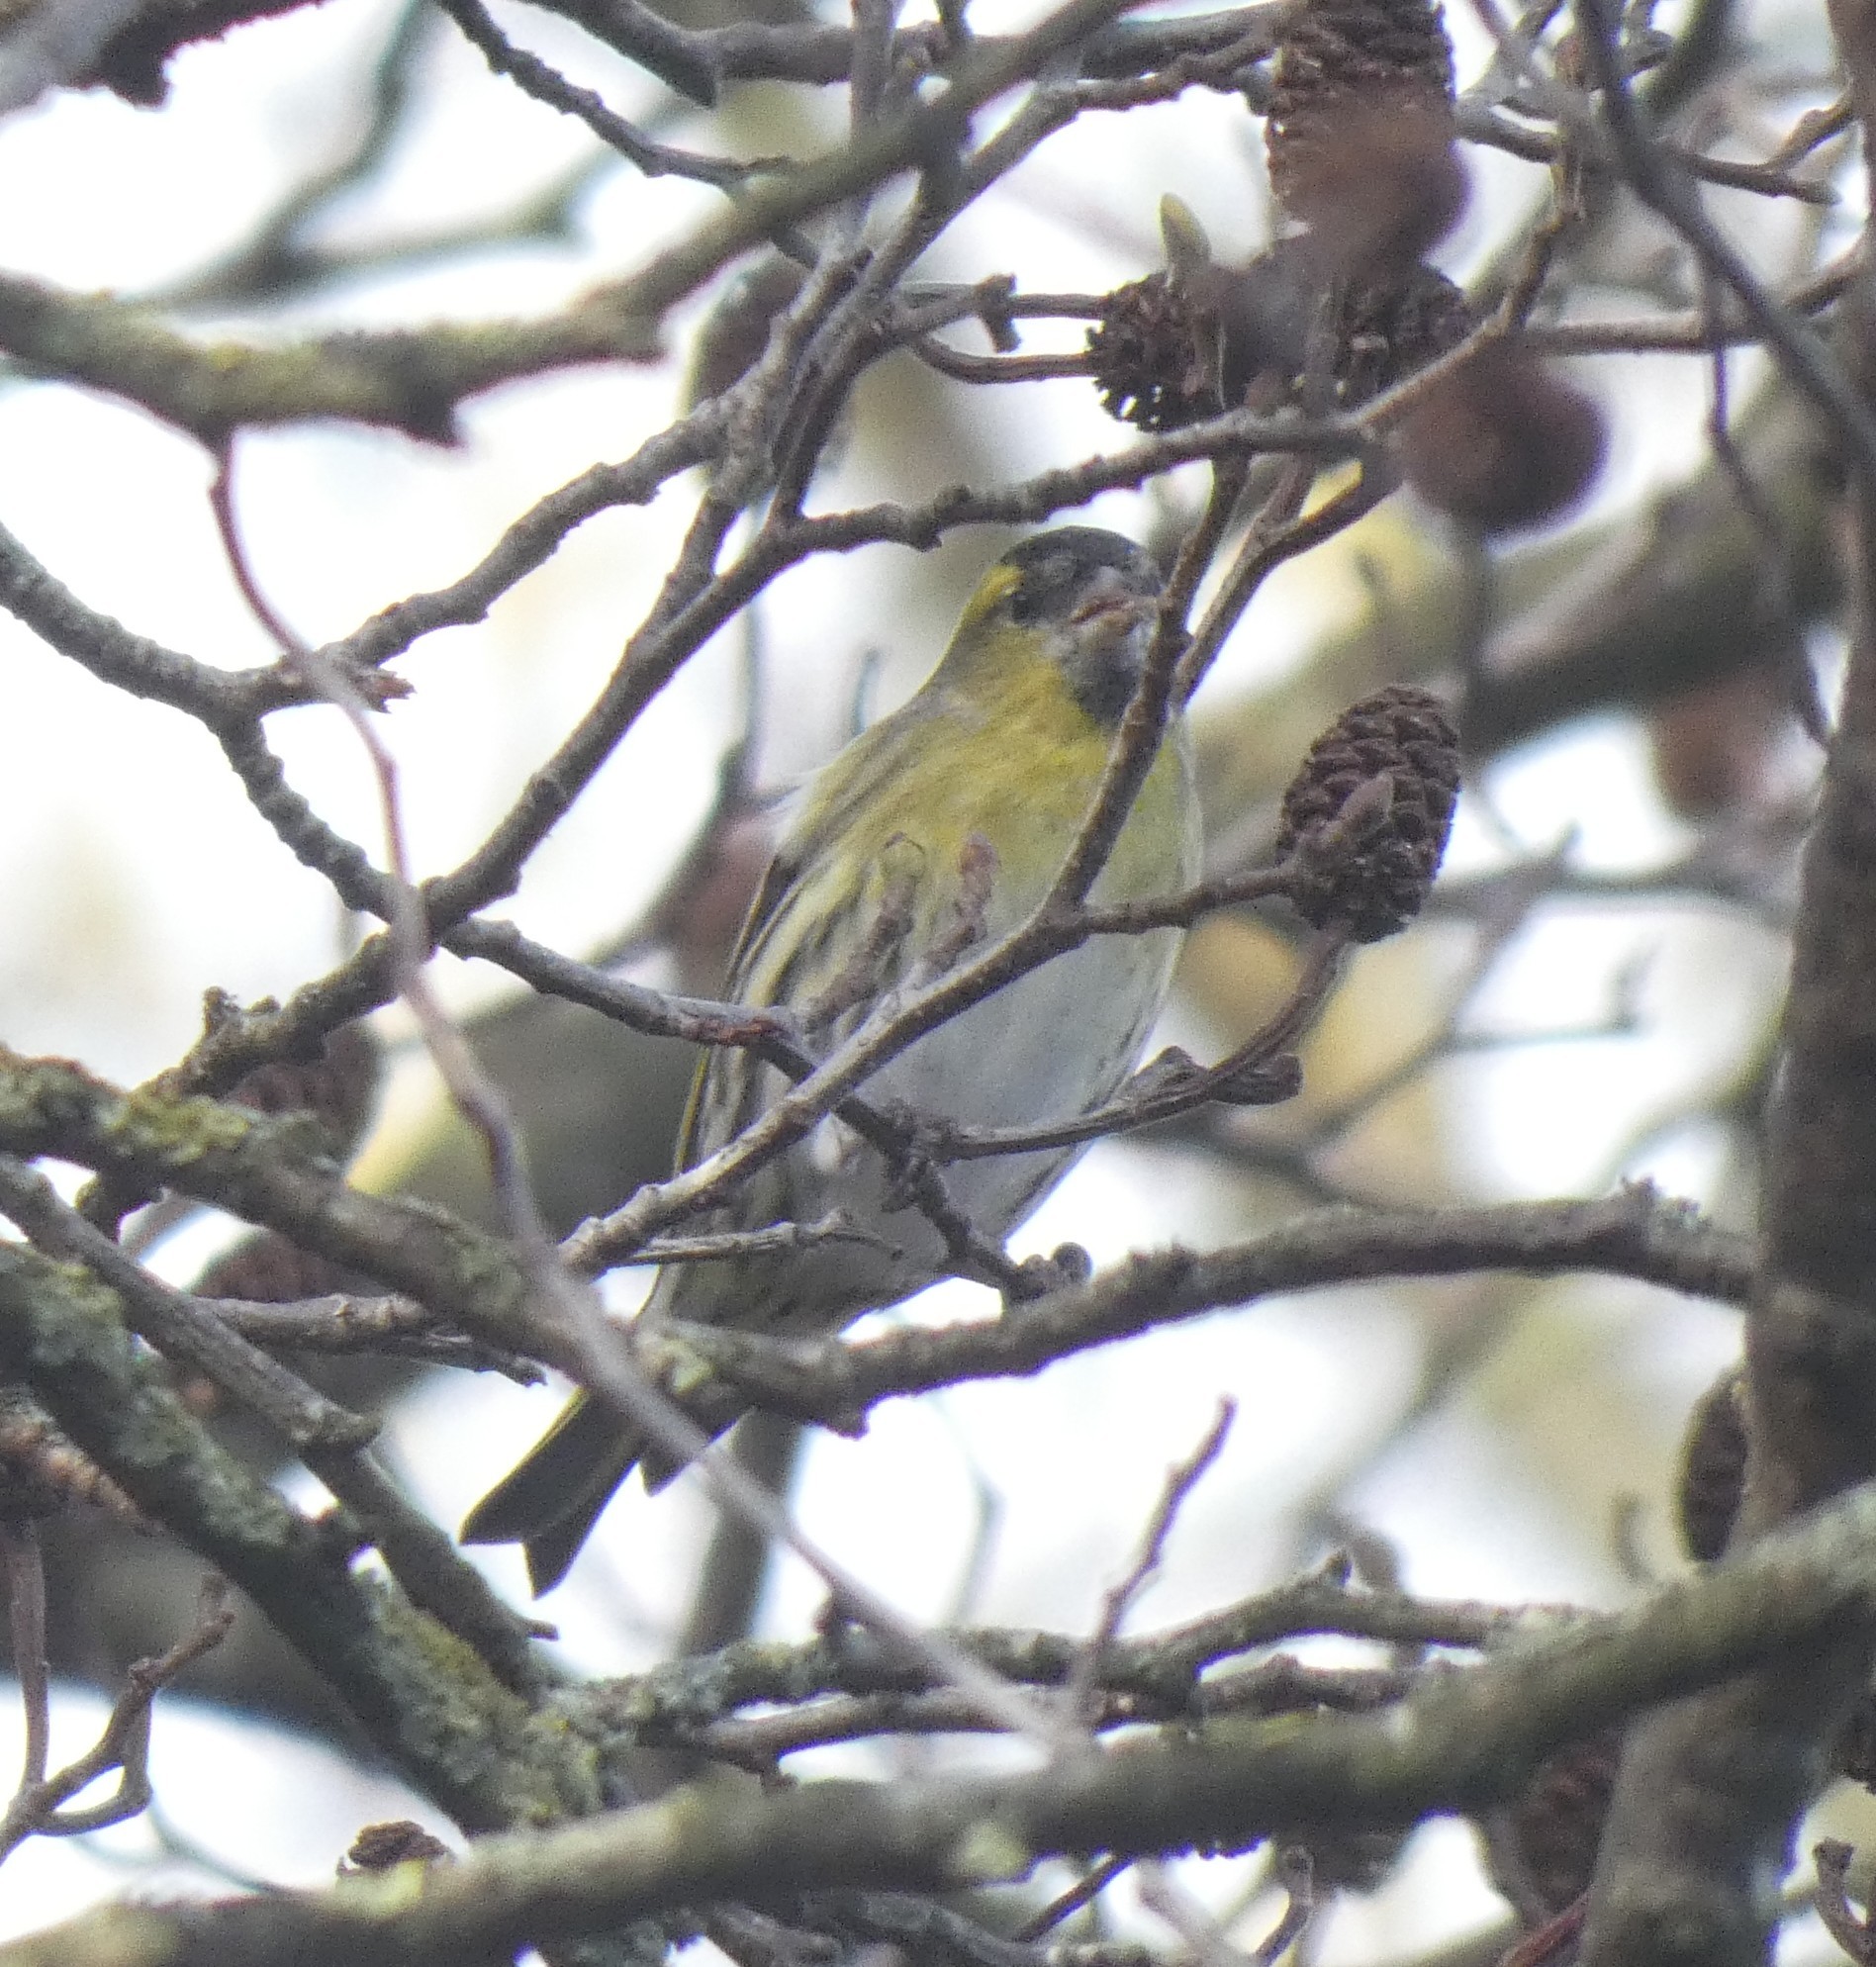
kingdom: Animalia
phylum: Chordata
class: Aves
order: Passeriformes
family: Fringillidae
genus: Spinus
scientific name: Spinus spinus
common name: Eurasian siskin
